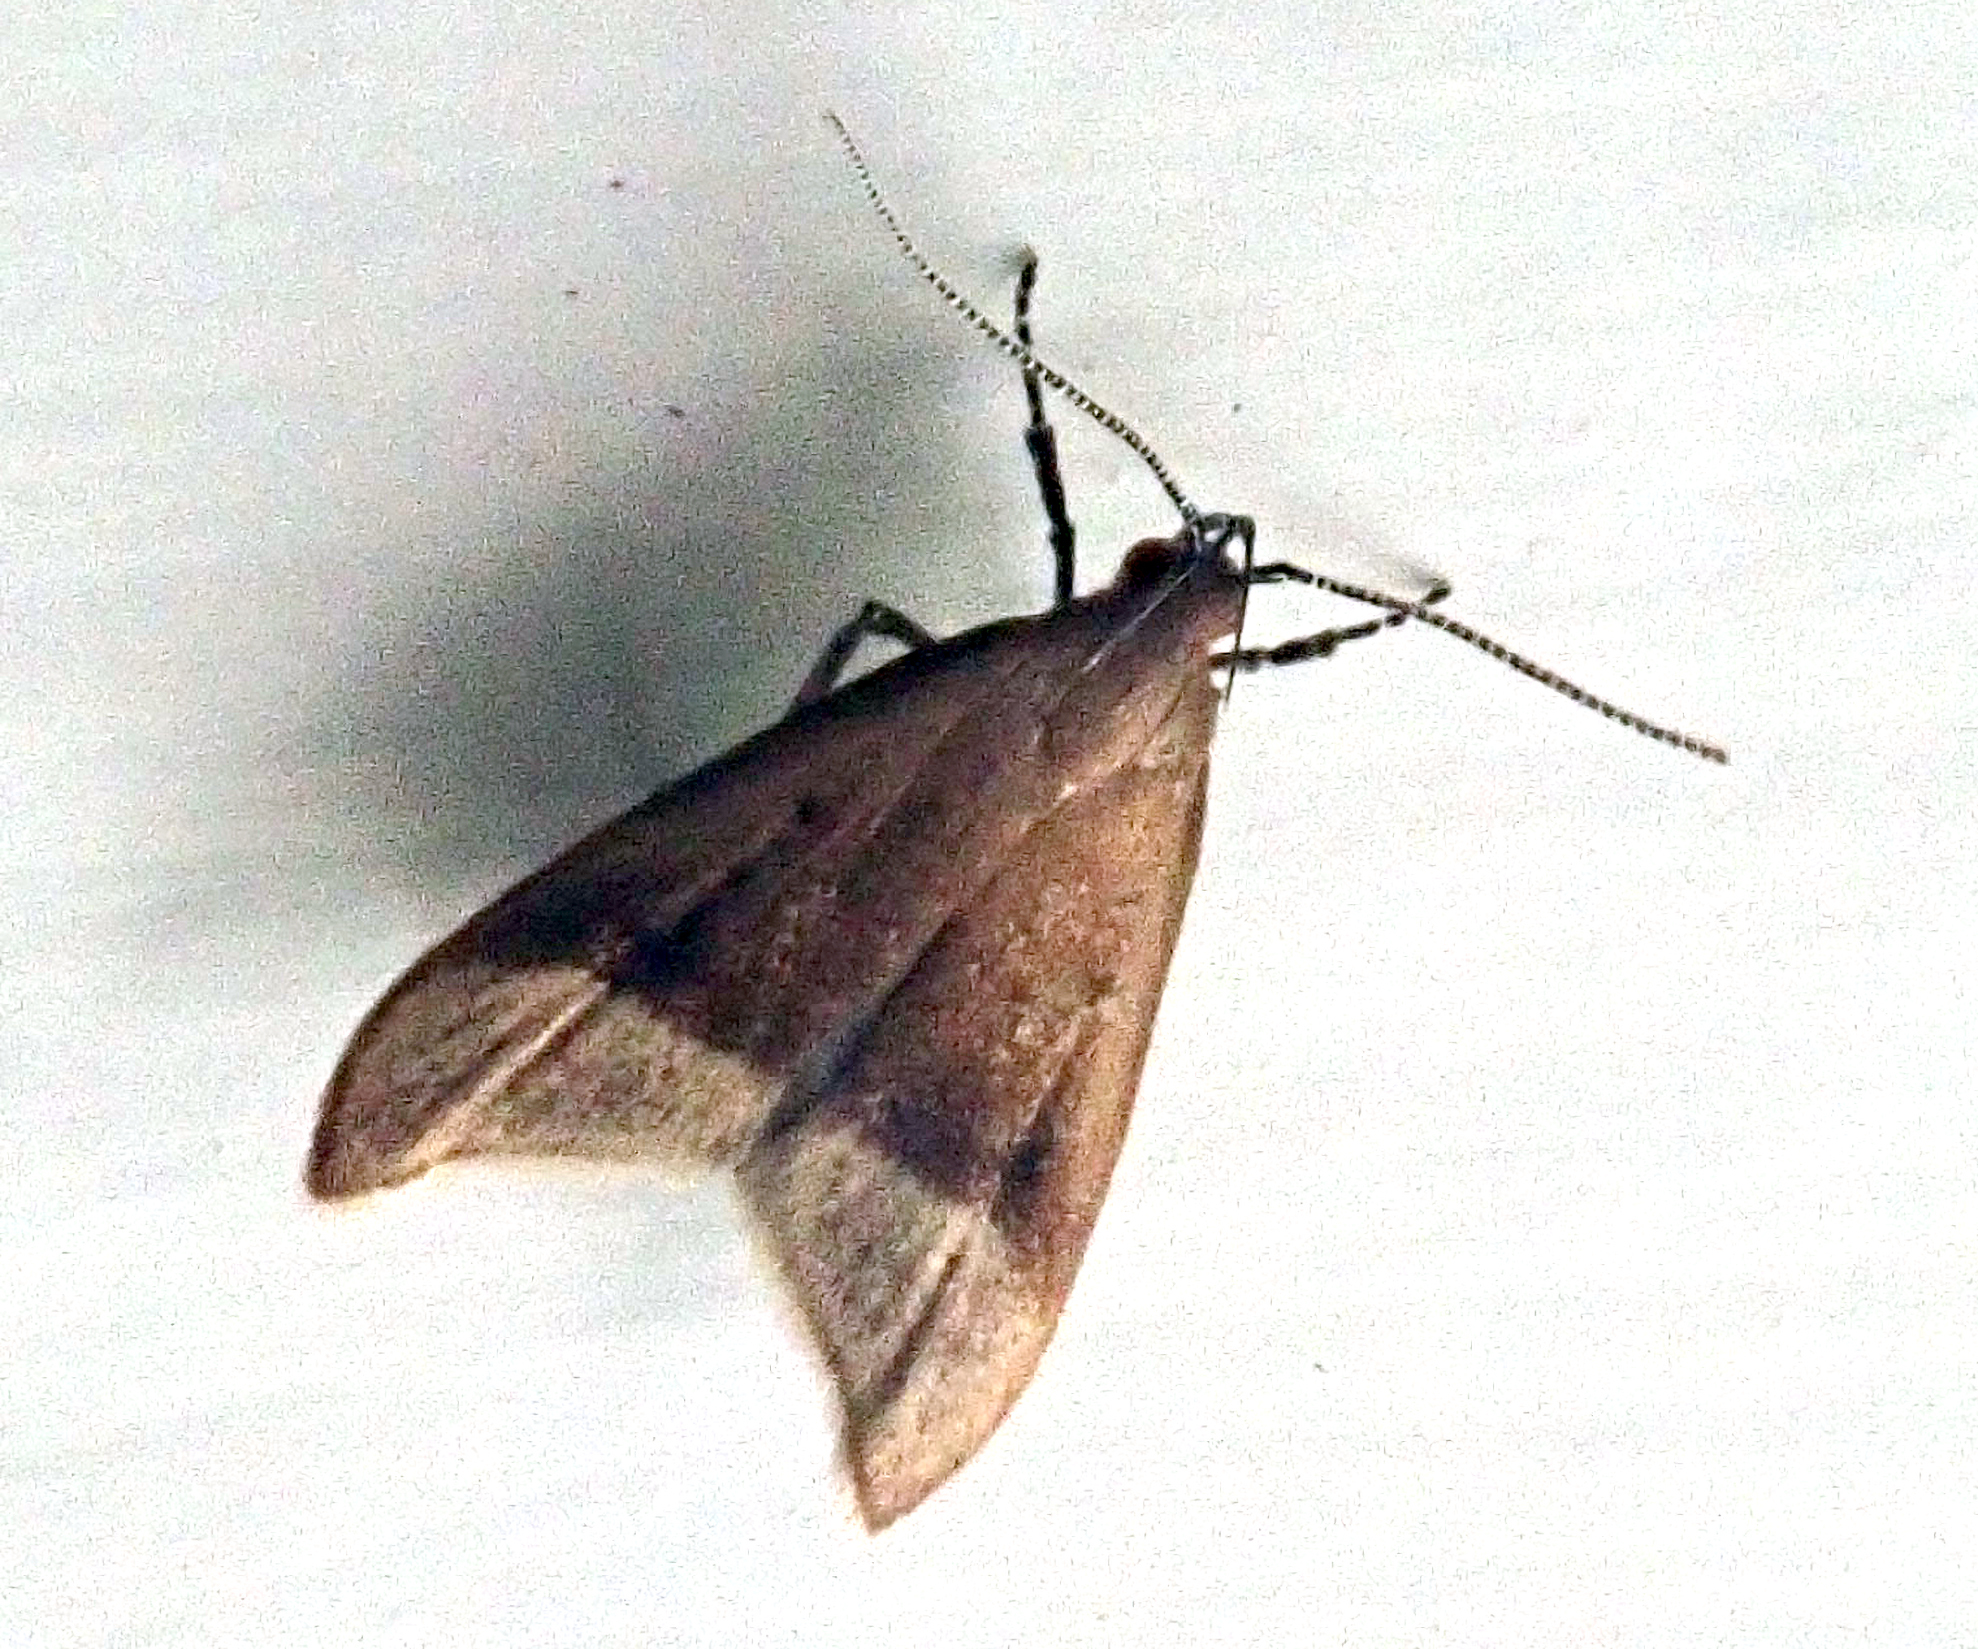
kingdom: Animalia
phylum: Arthropoda
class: Insecta
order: Lepidoptera
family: Oecophoridae
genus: Gymnobathra
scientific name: Gymnobathra hyetodes
